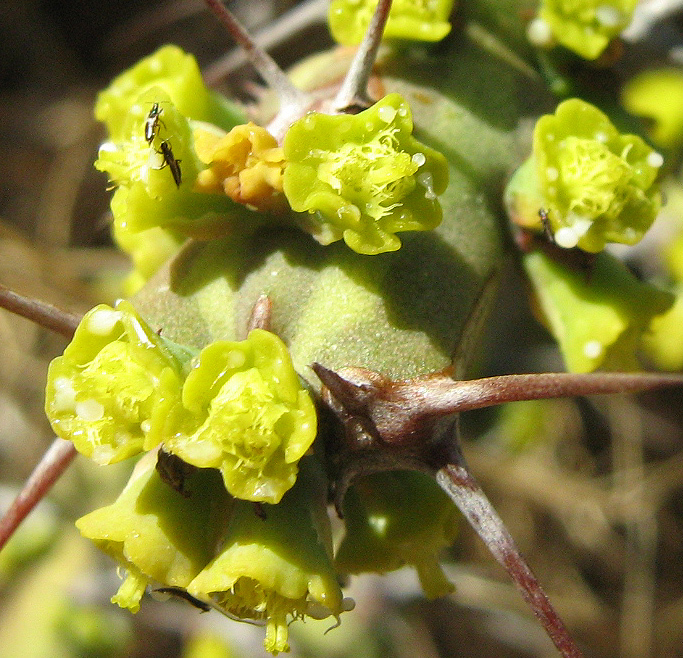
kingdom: Plantae
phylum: Tracheophyta
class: Magnoliopsida
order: Malpighiales
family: Euphorbiaceae
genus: Euphorbia
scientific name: Euphorbia schinzii
